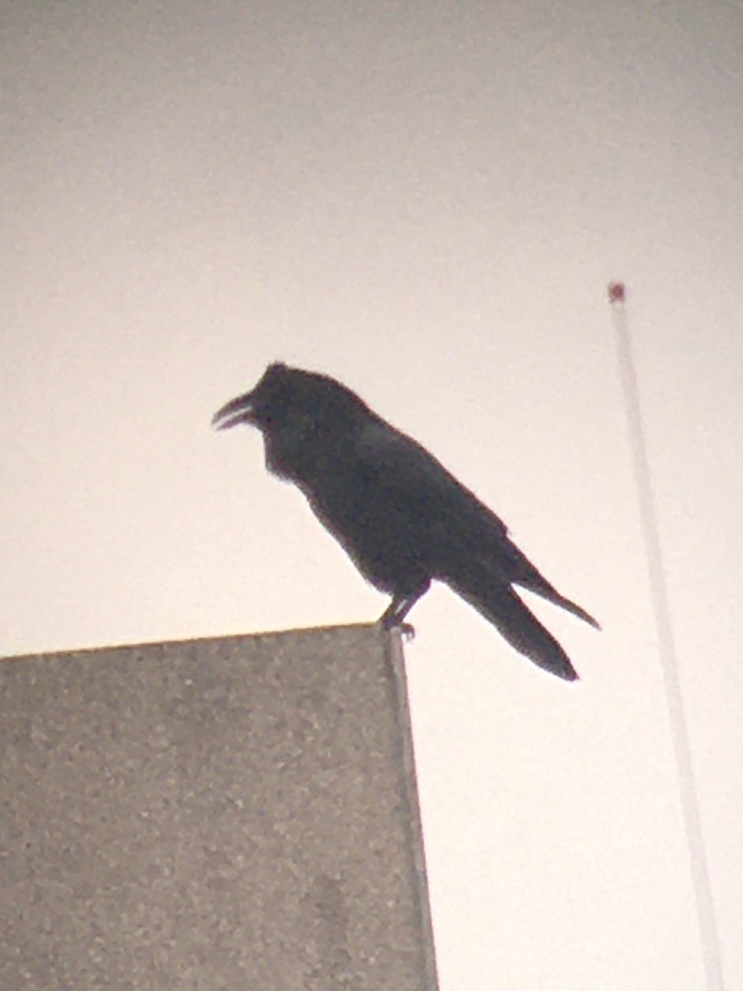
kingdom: Animalia
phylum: Chordata
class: Aves
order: Passeriformes
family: Corvidae
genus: Corvus
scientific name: Corvus corax
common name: Common raven
